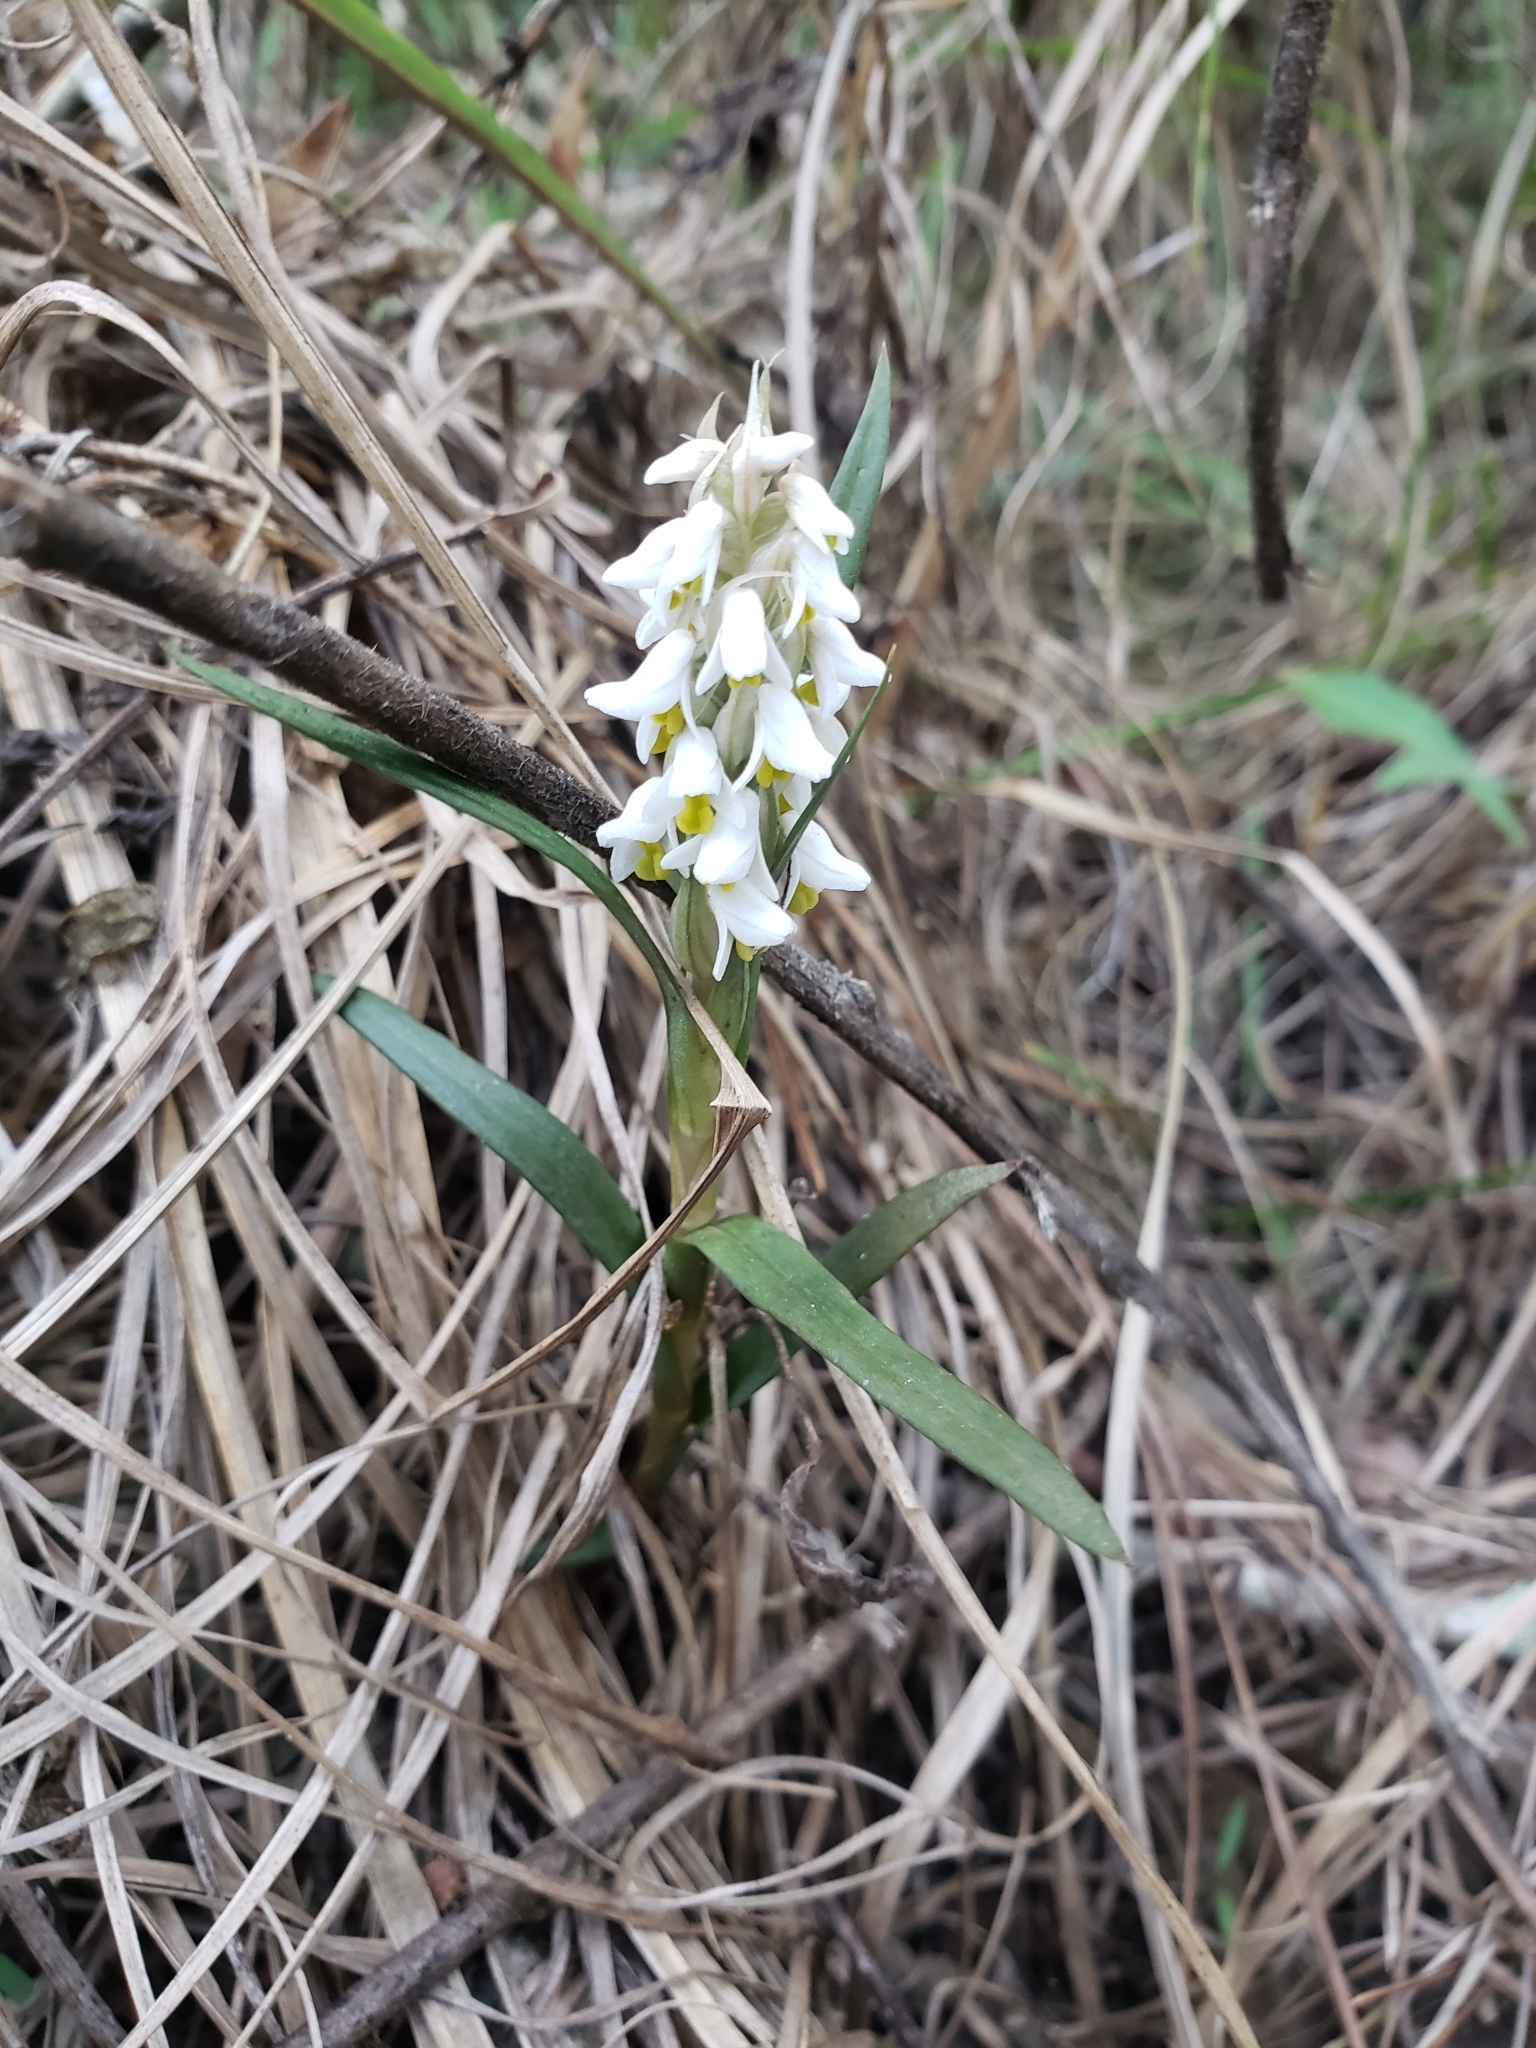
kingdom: Plantae
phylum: Tracheophyta
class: Liliopsida
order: Asparagales
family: Orchidaceae
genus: Zeuxine
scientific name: Zeuxine strateumatica
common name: Soldier's orchid
